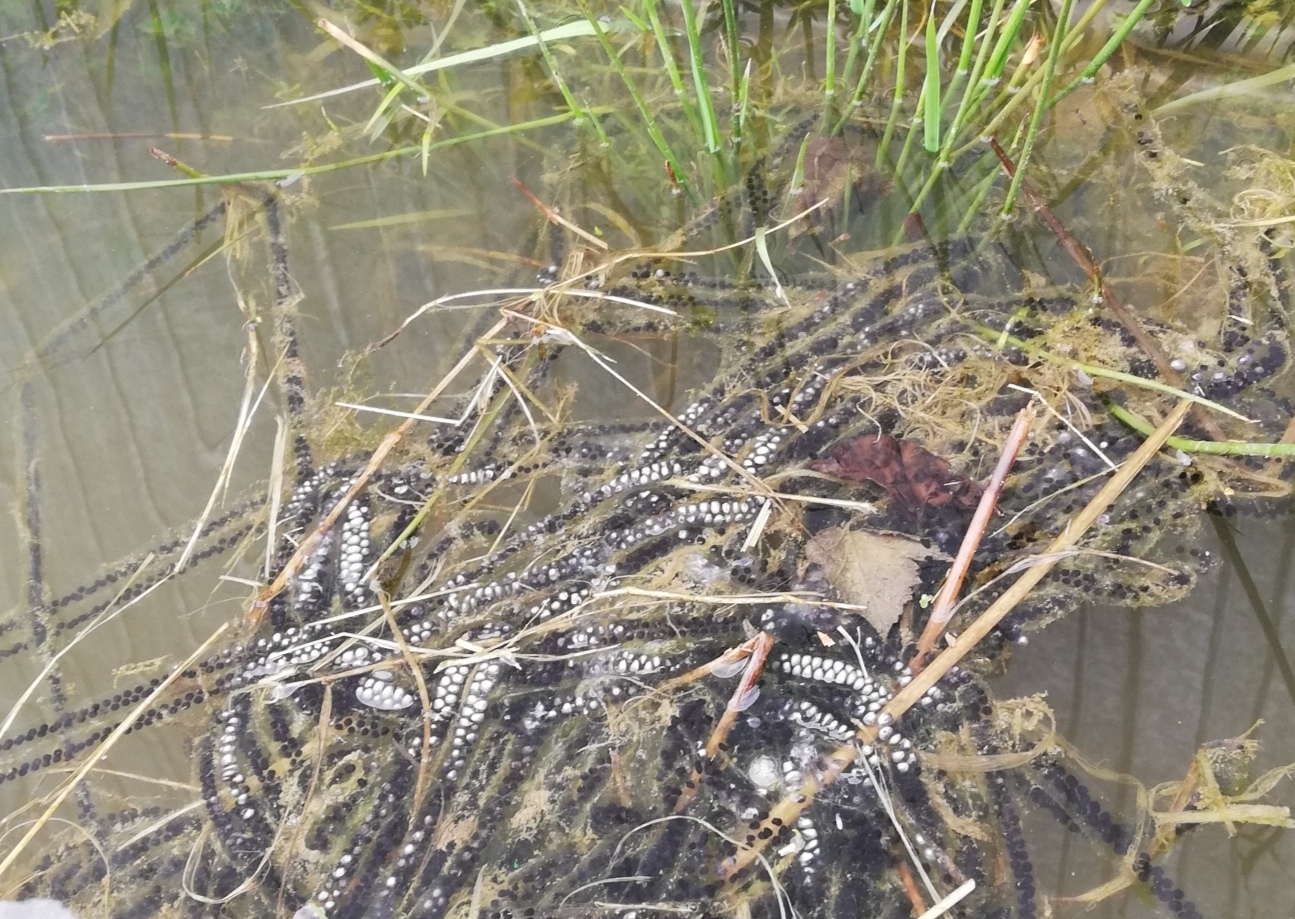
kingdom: Animalia
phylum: Chordata
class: Amphibia
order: Anura
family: Bufonidae
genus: Bufo
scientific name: Bufo bufo
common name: Common toad
